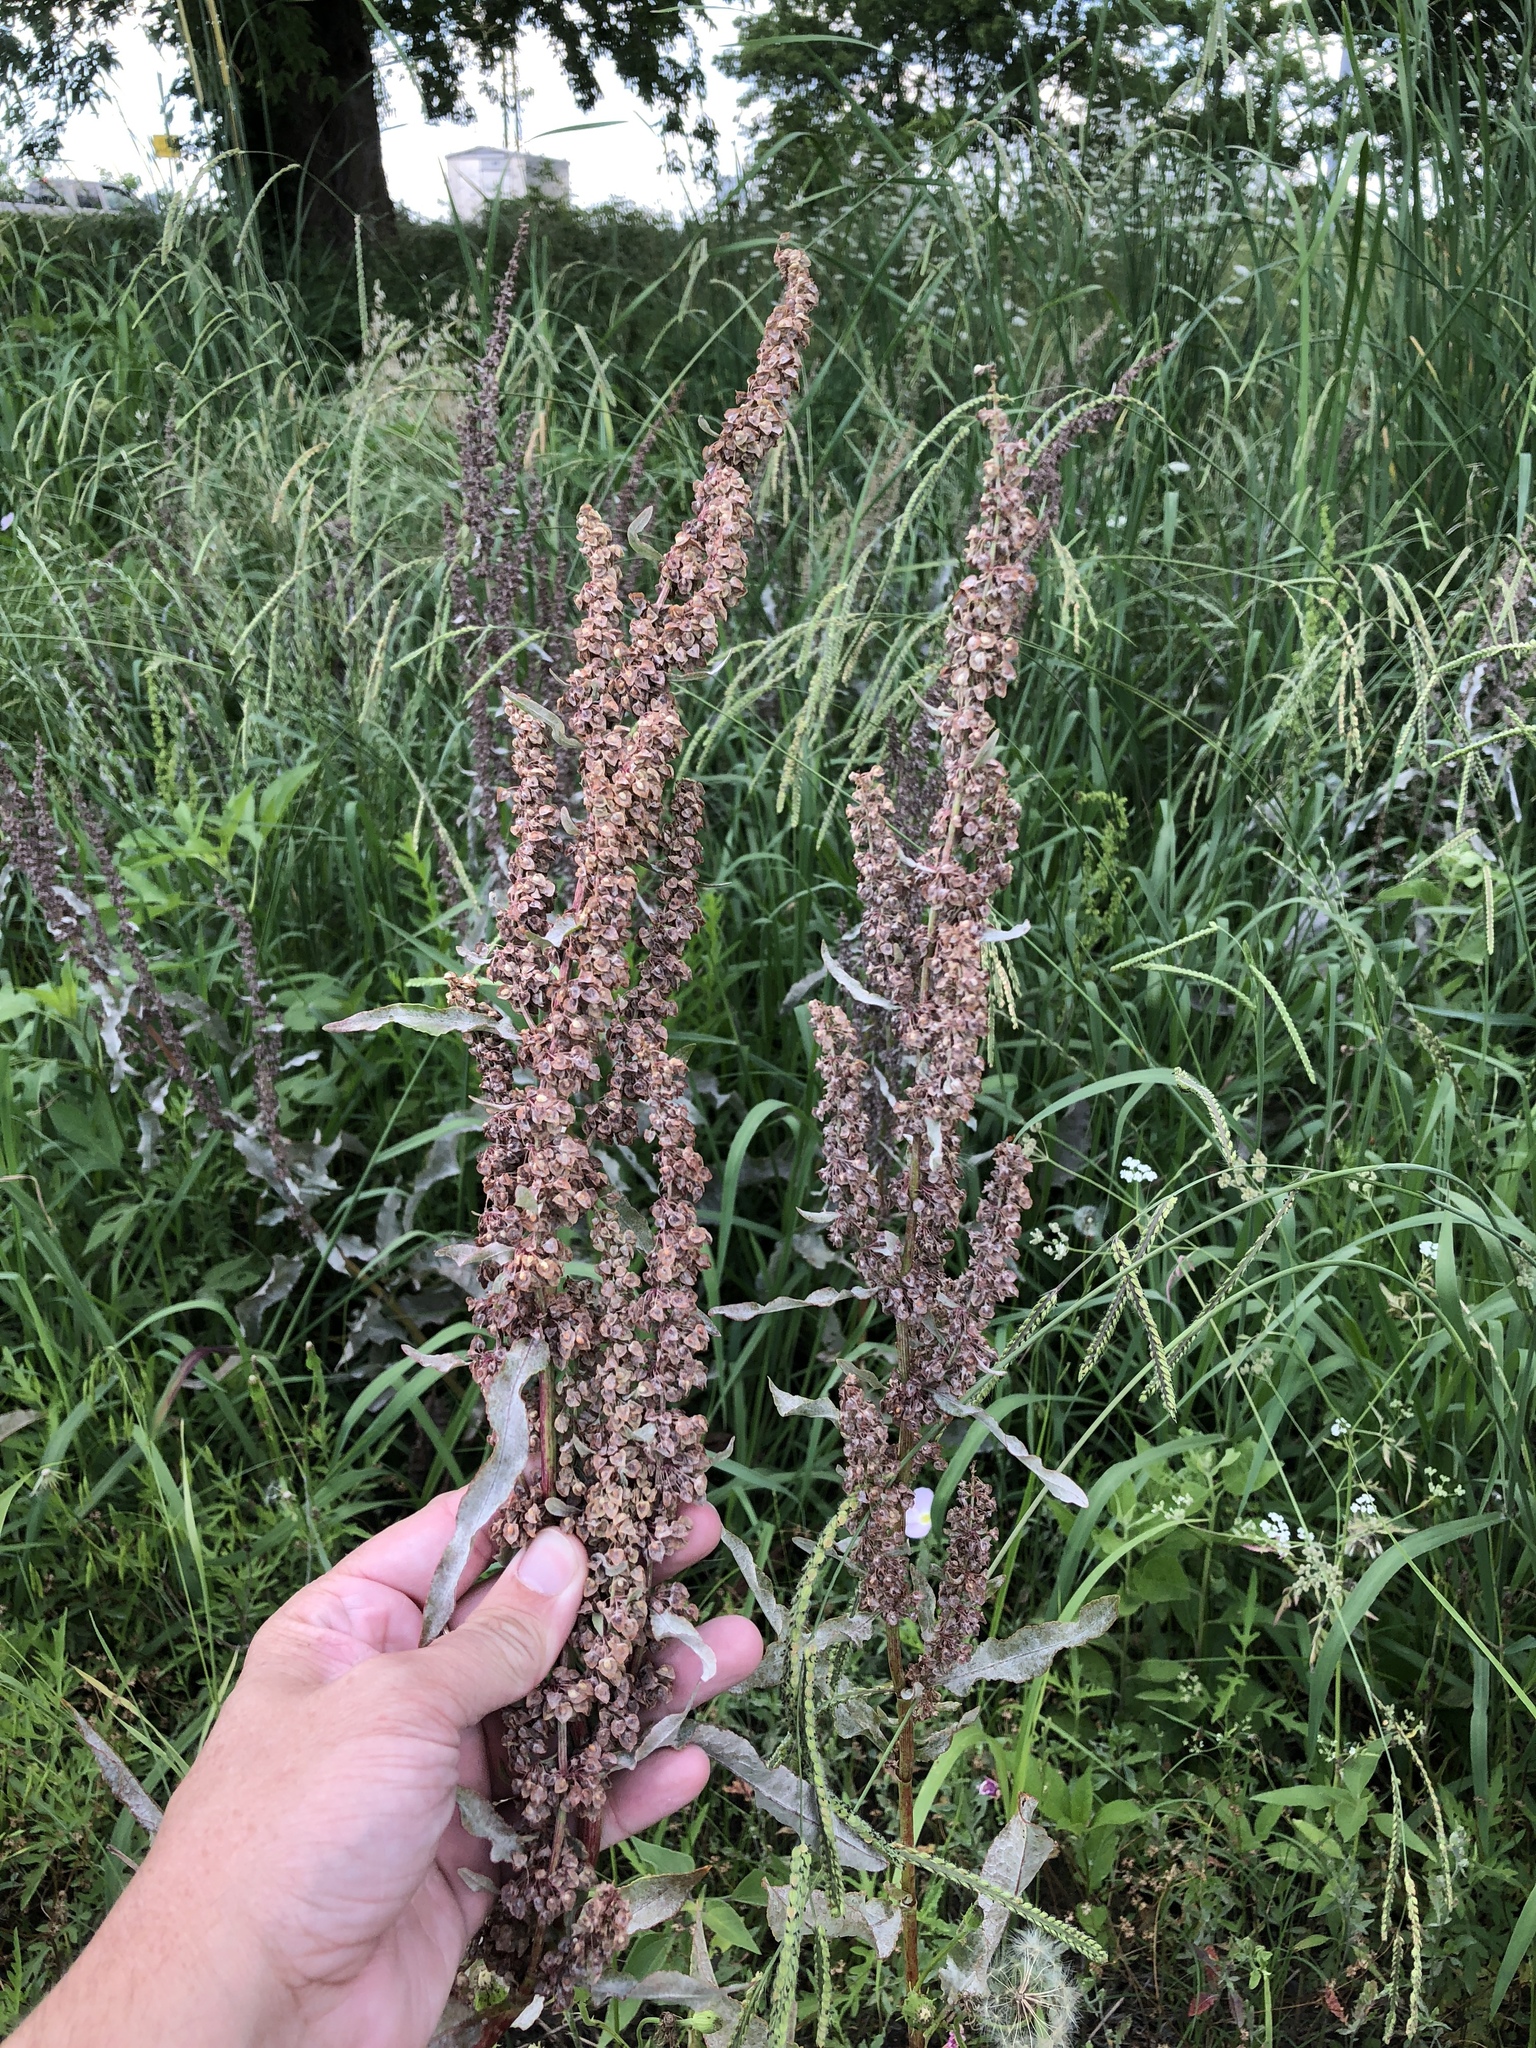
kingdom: Plantae
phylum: Tracheophyta
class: Magnoliopsida
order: Caryophyllales
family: Polygonaceae
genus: Rumex
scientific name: Rumex crispus
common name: Curled dock
